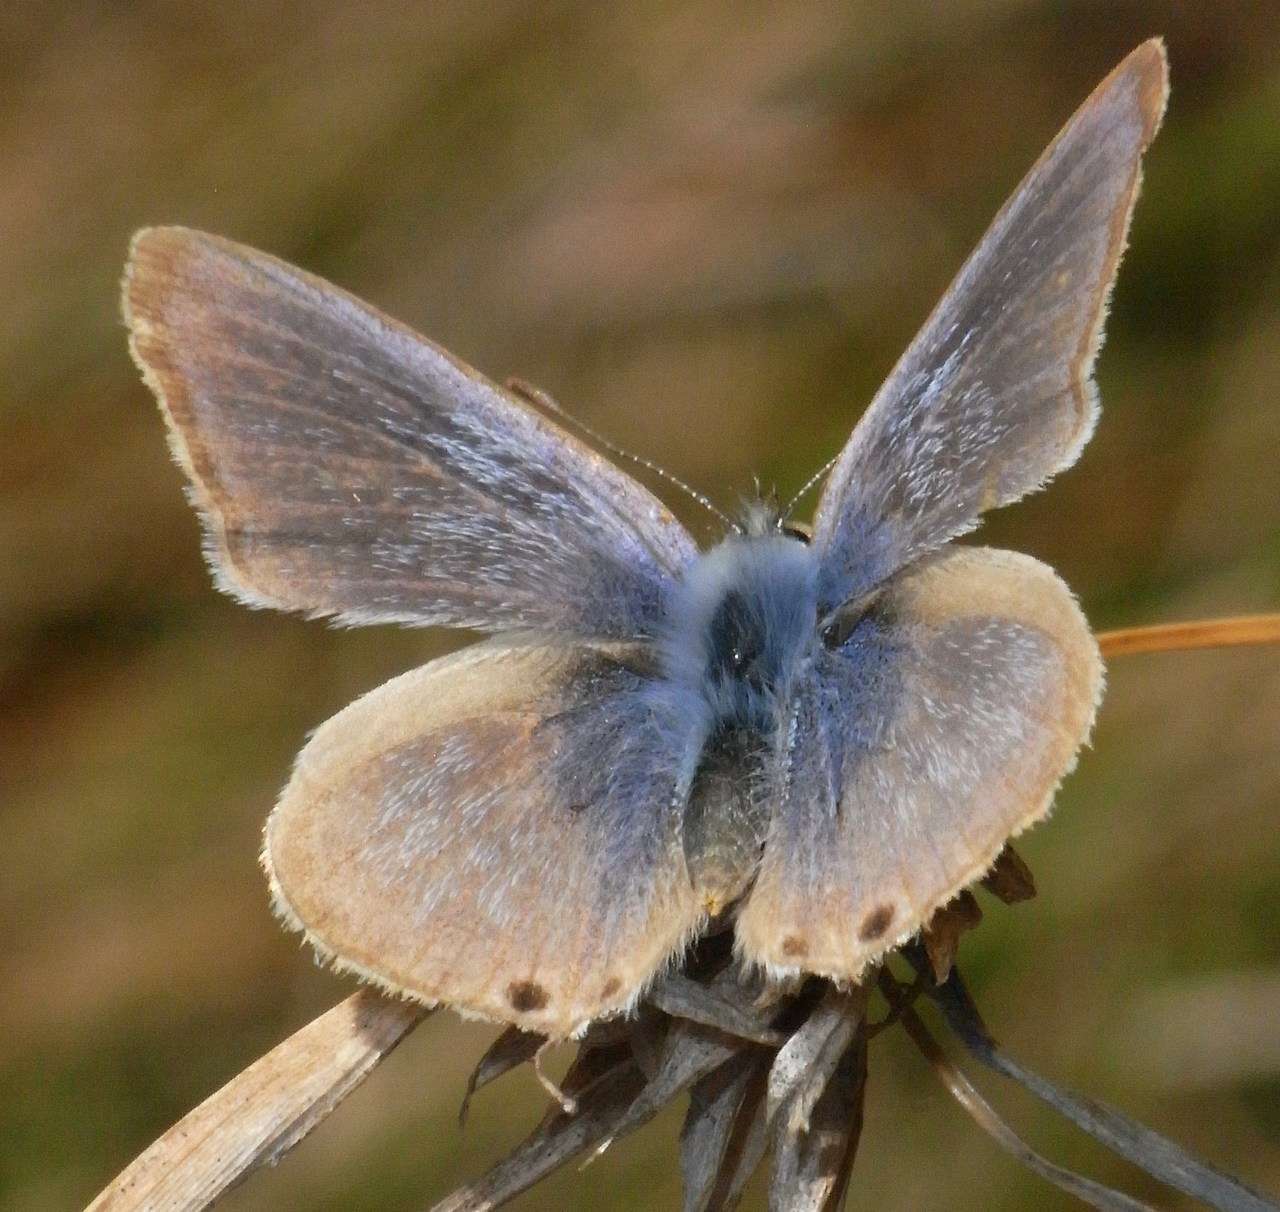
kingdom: Animalia
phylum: Arthropoda
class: Insecta
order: Lepidoptera
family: Lycaenidae
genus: Lampides
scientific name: Lampides boeticus
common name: Long-tailed blue
